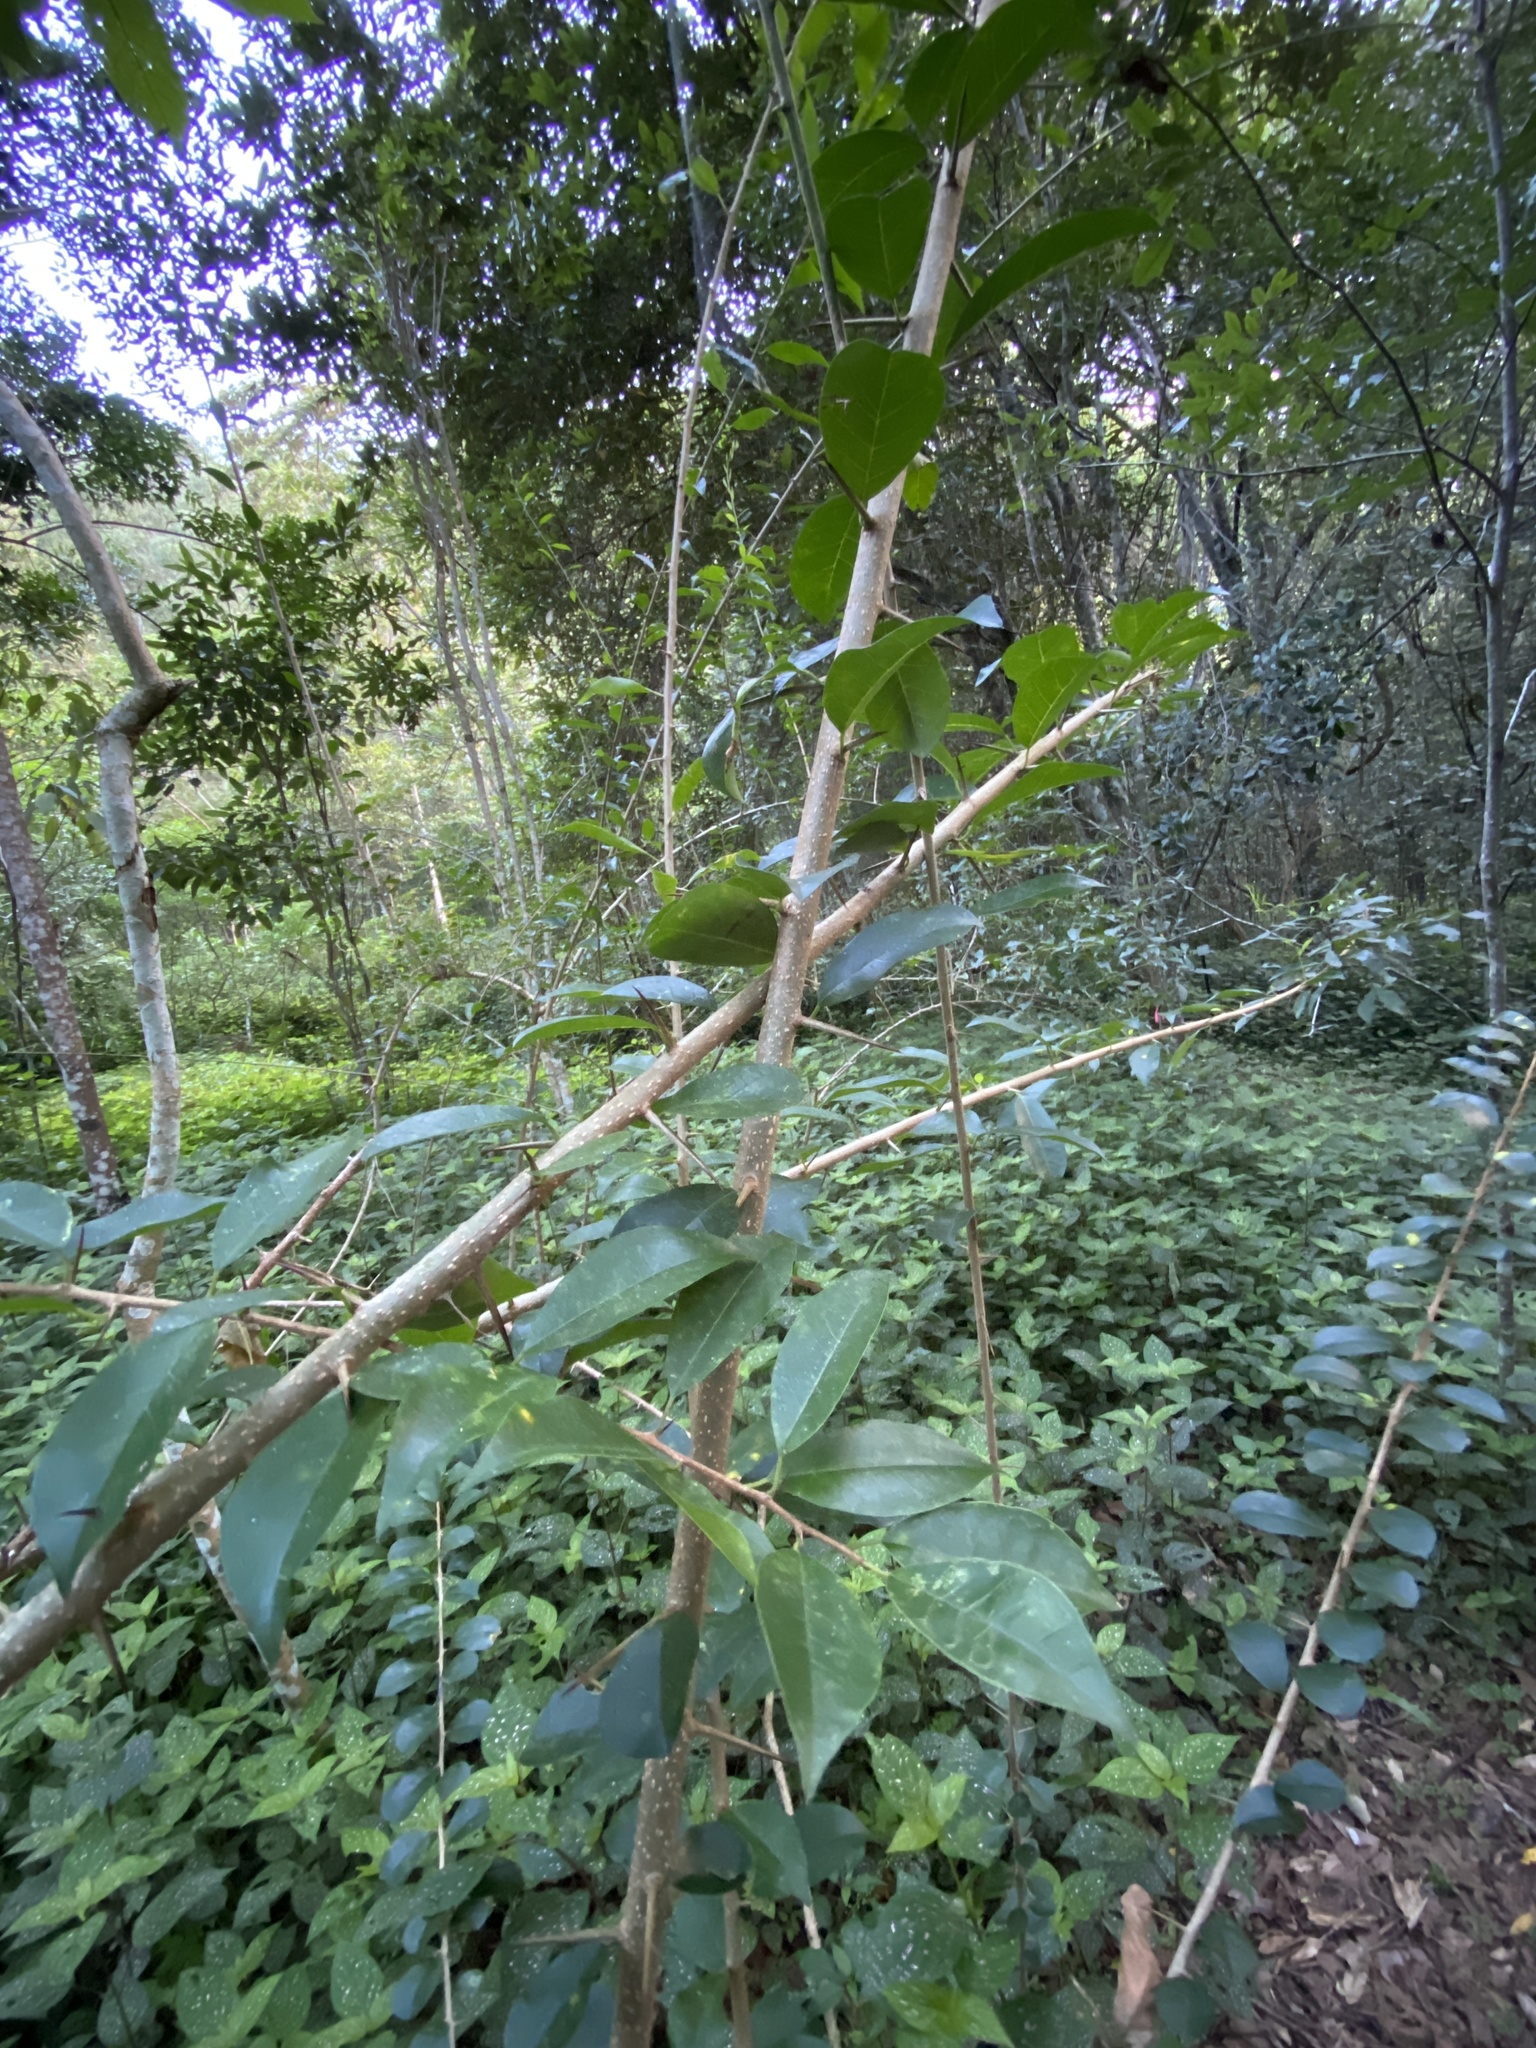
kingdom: Plantae
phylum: Tracheophyta
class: Magnoliopsida
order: Rosales
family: Moraceae
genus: Maclura
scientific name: Maclura cochinchinensis
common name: Cockspurthorn
